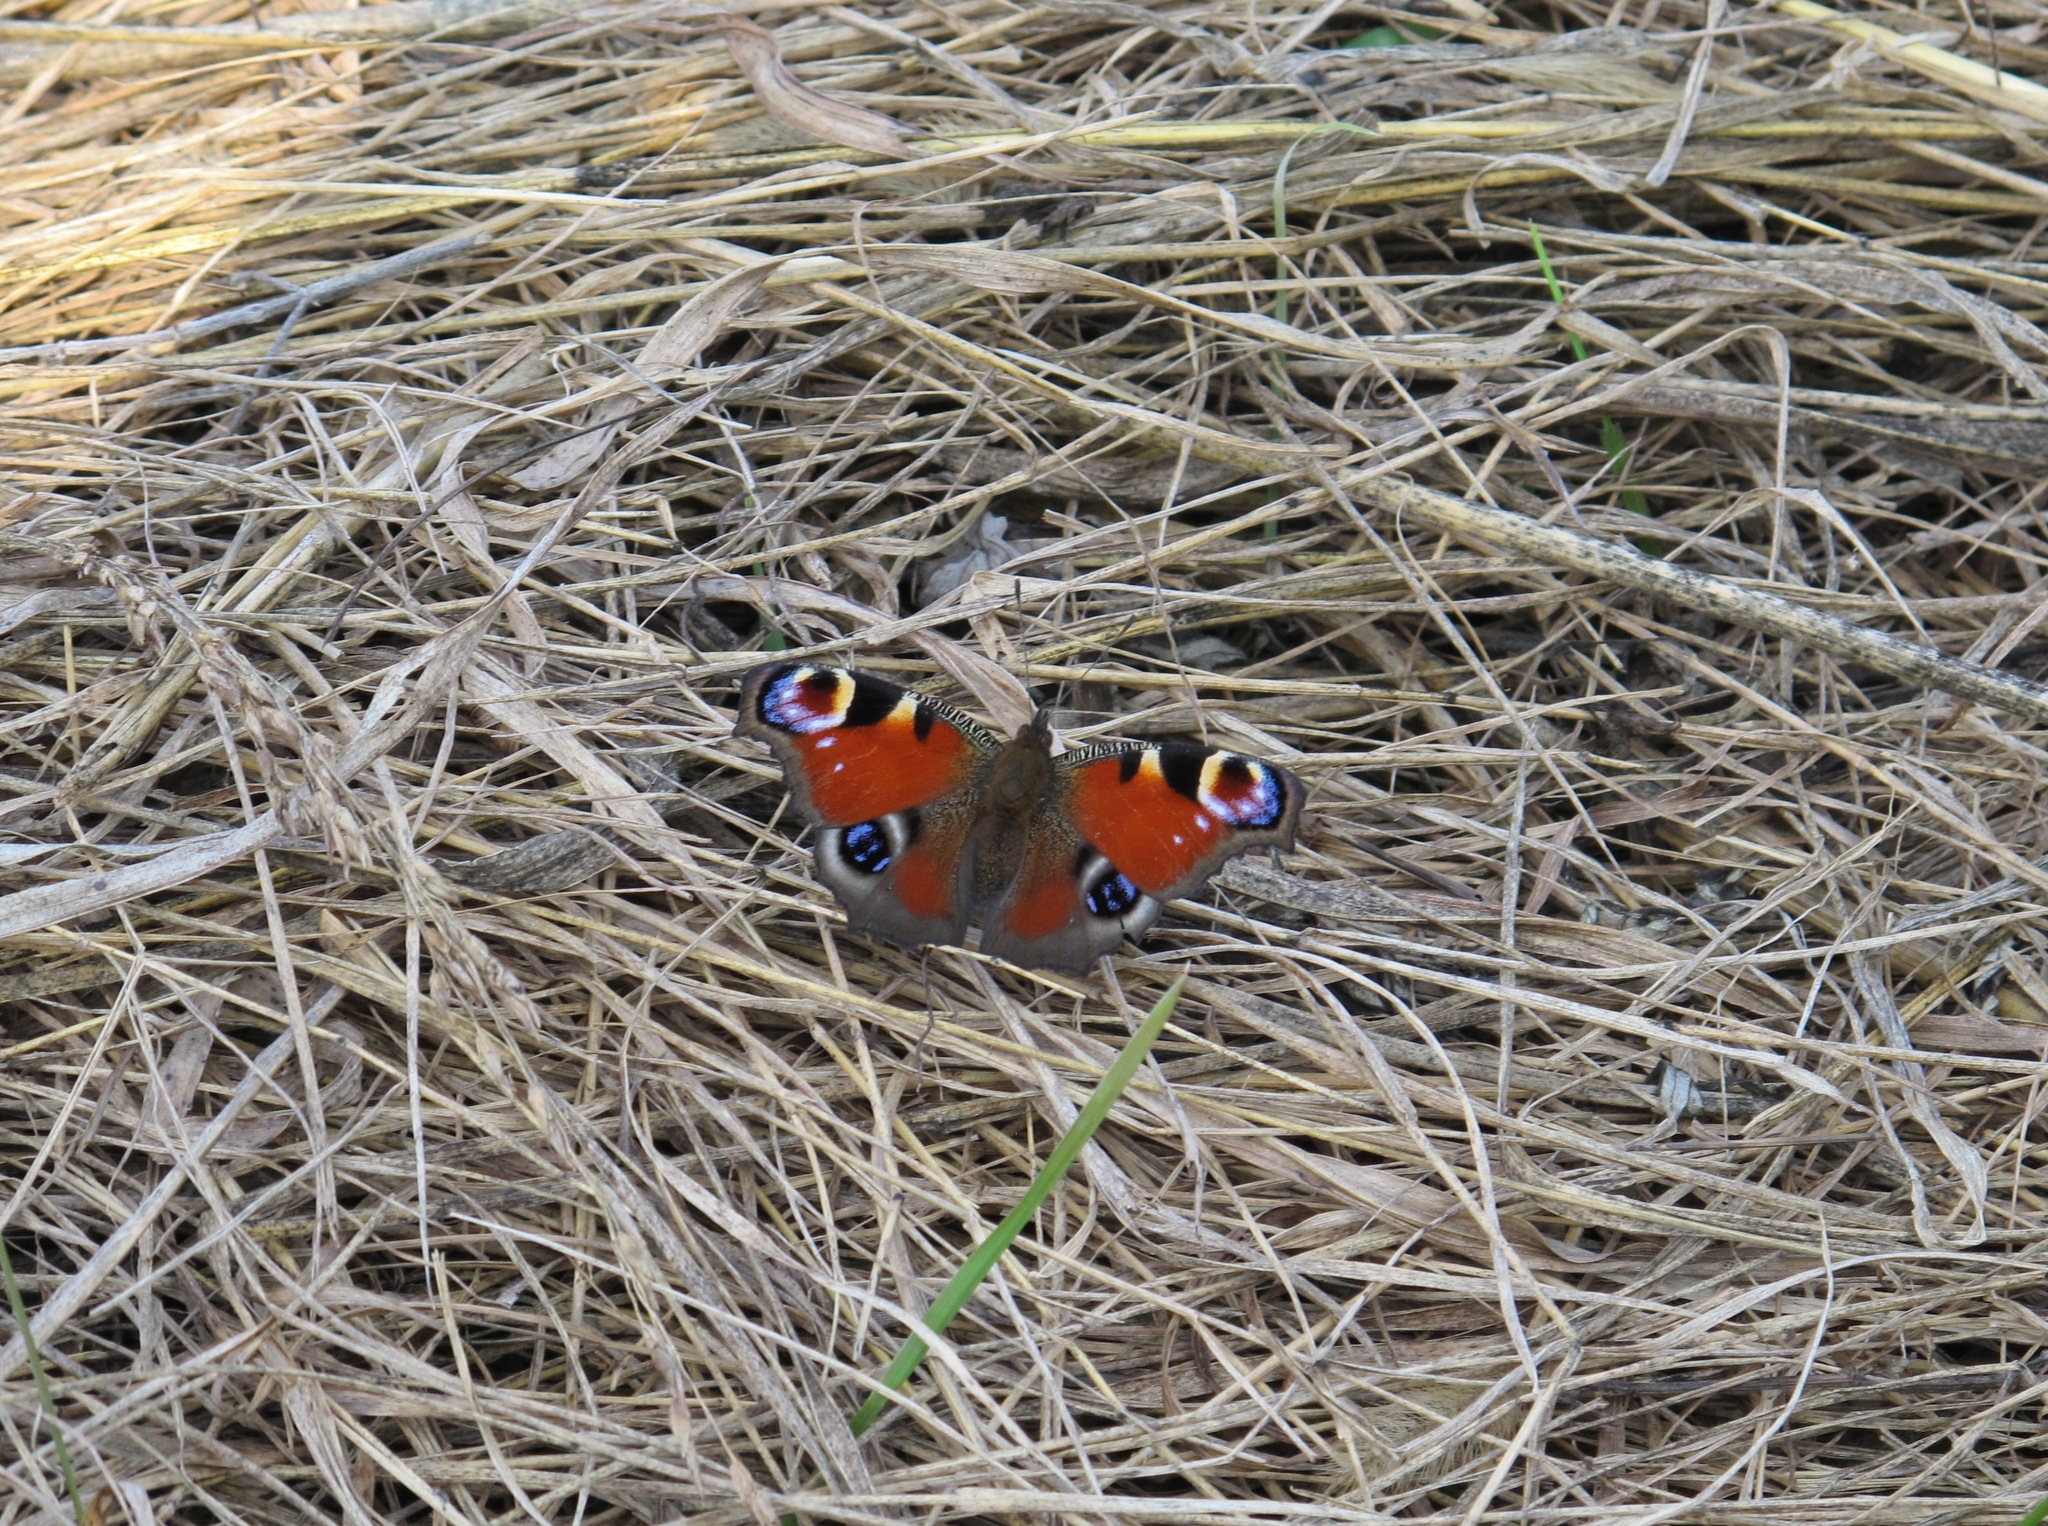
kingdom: Animalia
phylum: Arthropoda
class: Insecta
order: Lepidoptera
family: Nymphalidae
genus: Aglais
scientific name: Aglais io
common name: Peacock
